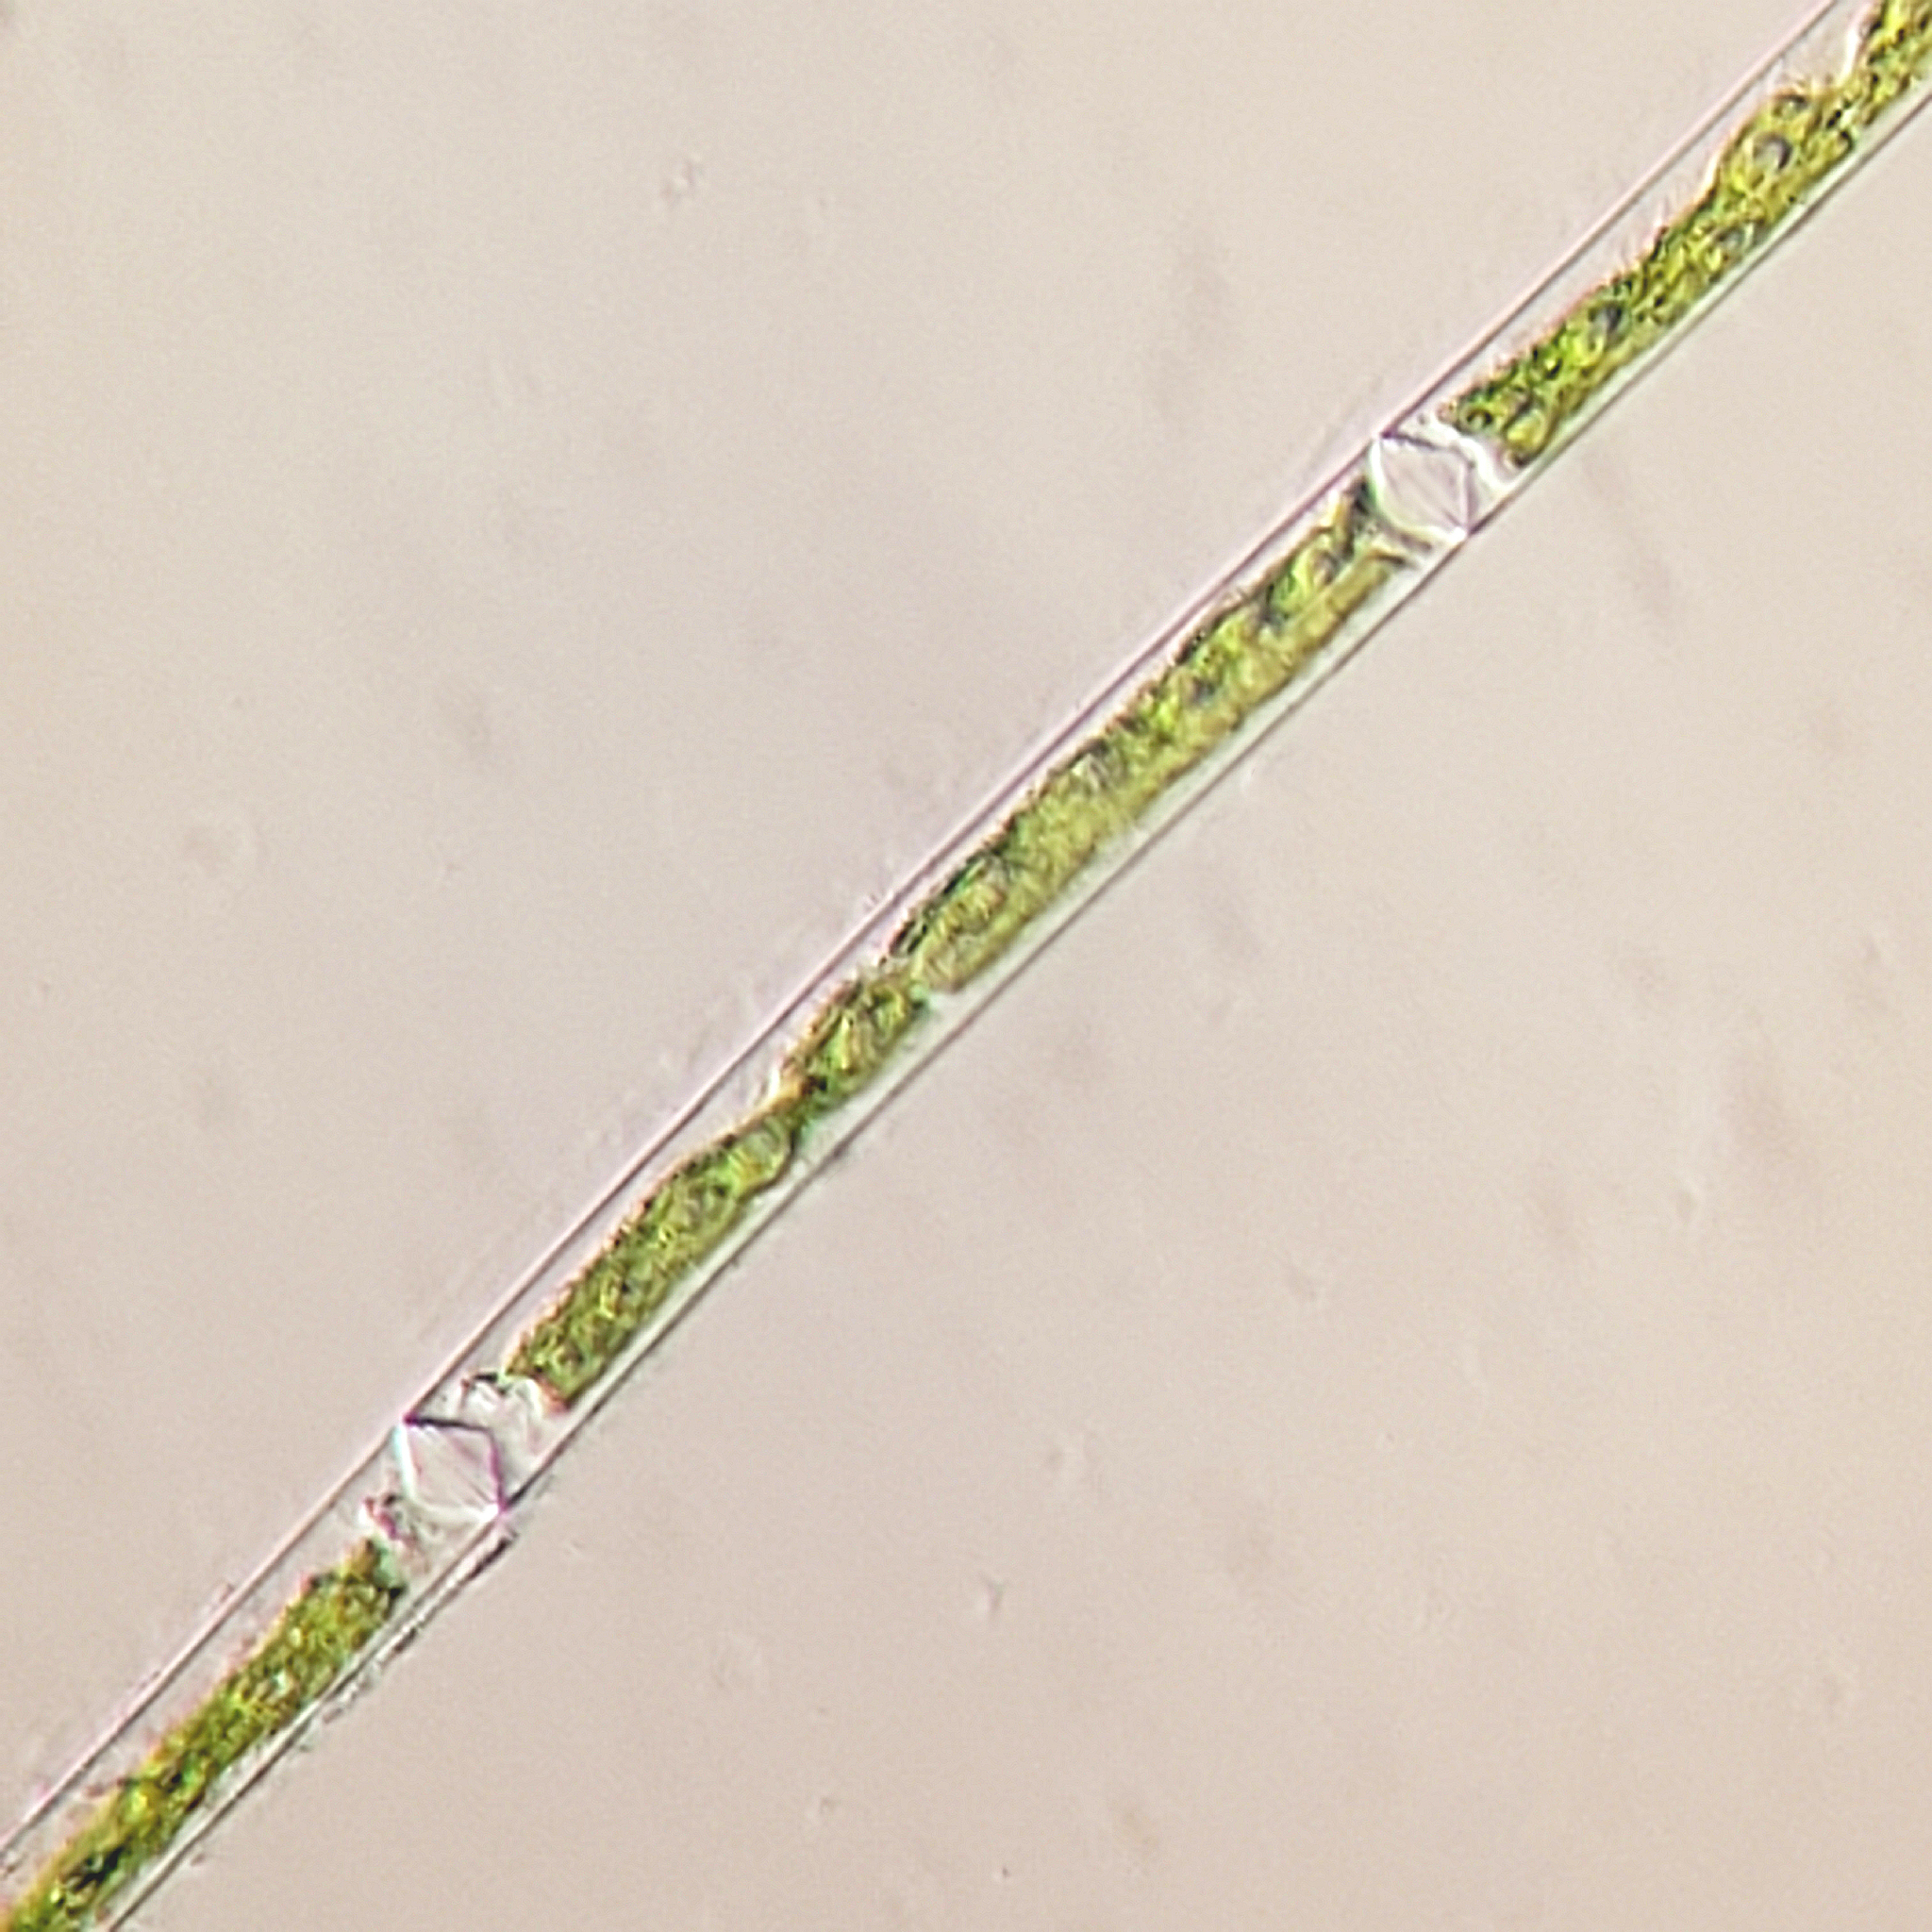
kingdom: Plantae
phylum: Charophyta
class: Zygnematophyceae
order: Zygnematales
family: Zygnemataceae
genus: Mougeotia
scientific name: Mougeotia
